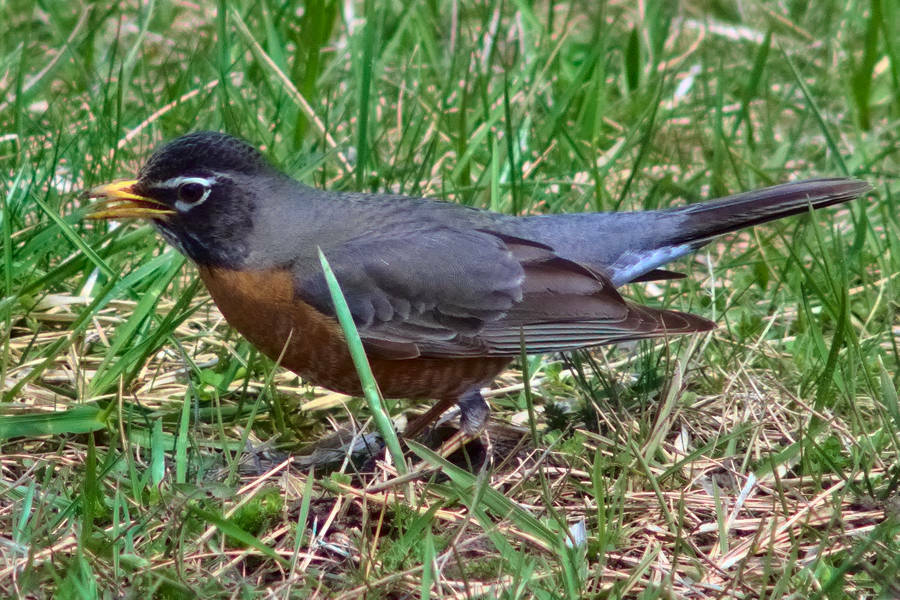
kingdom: Animalia
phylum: Chordata
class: Aves
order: Passeriformes
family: Turdidae
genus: Turdus
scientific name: Turdus migratorius
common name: American robin
